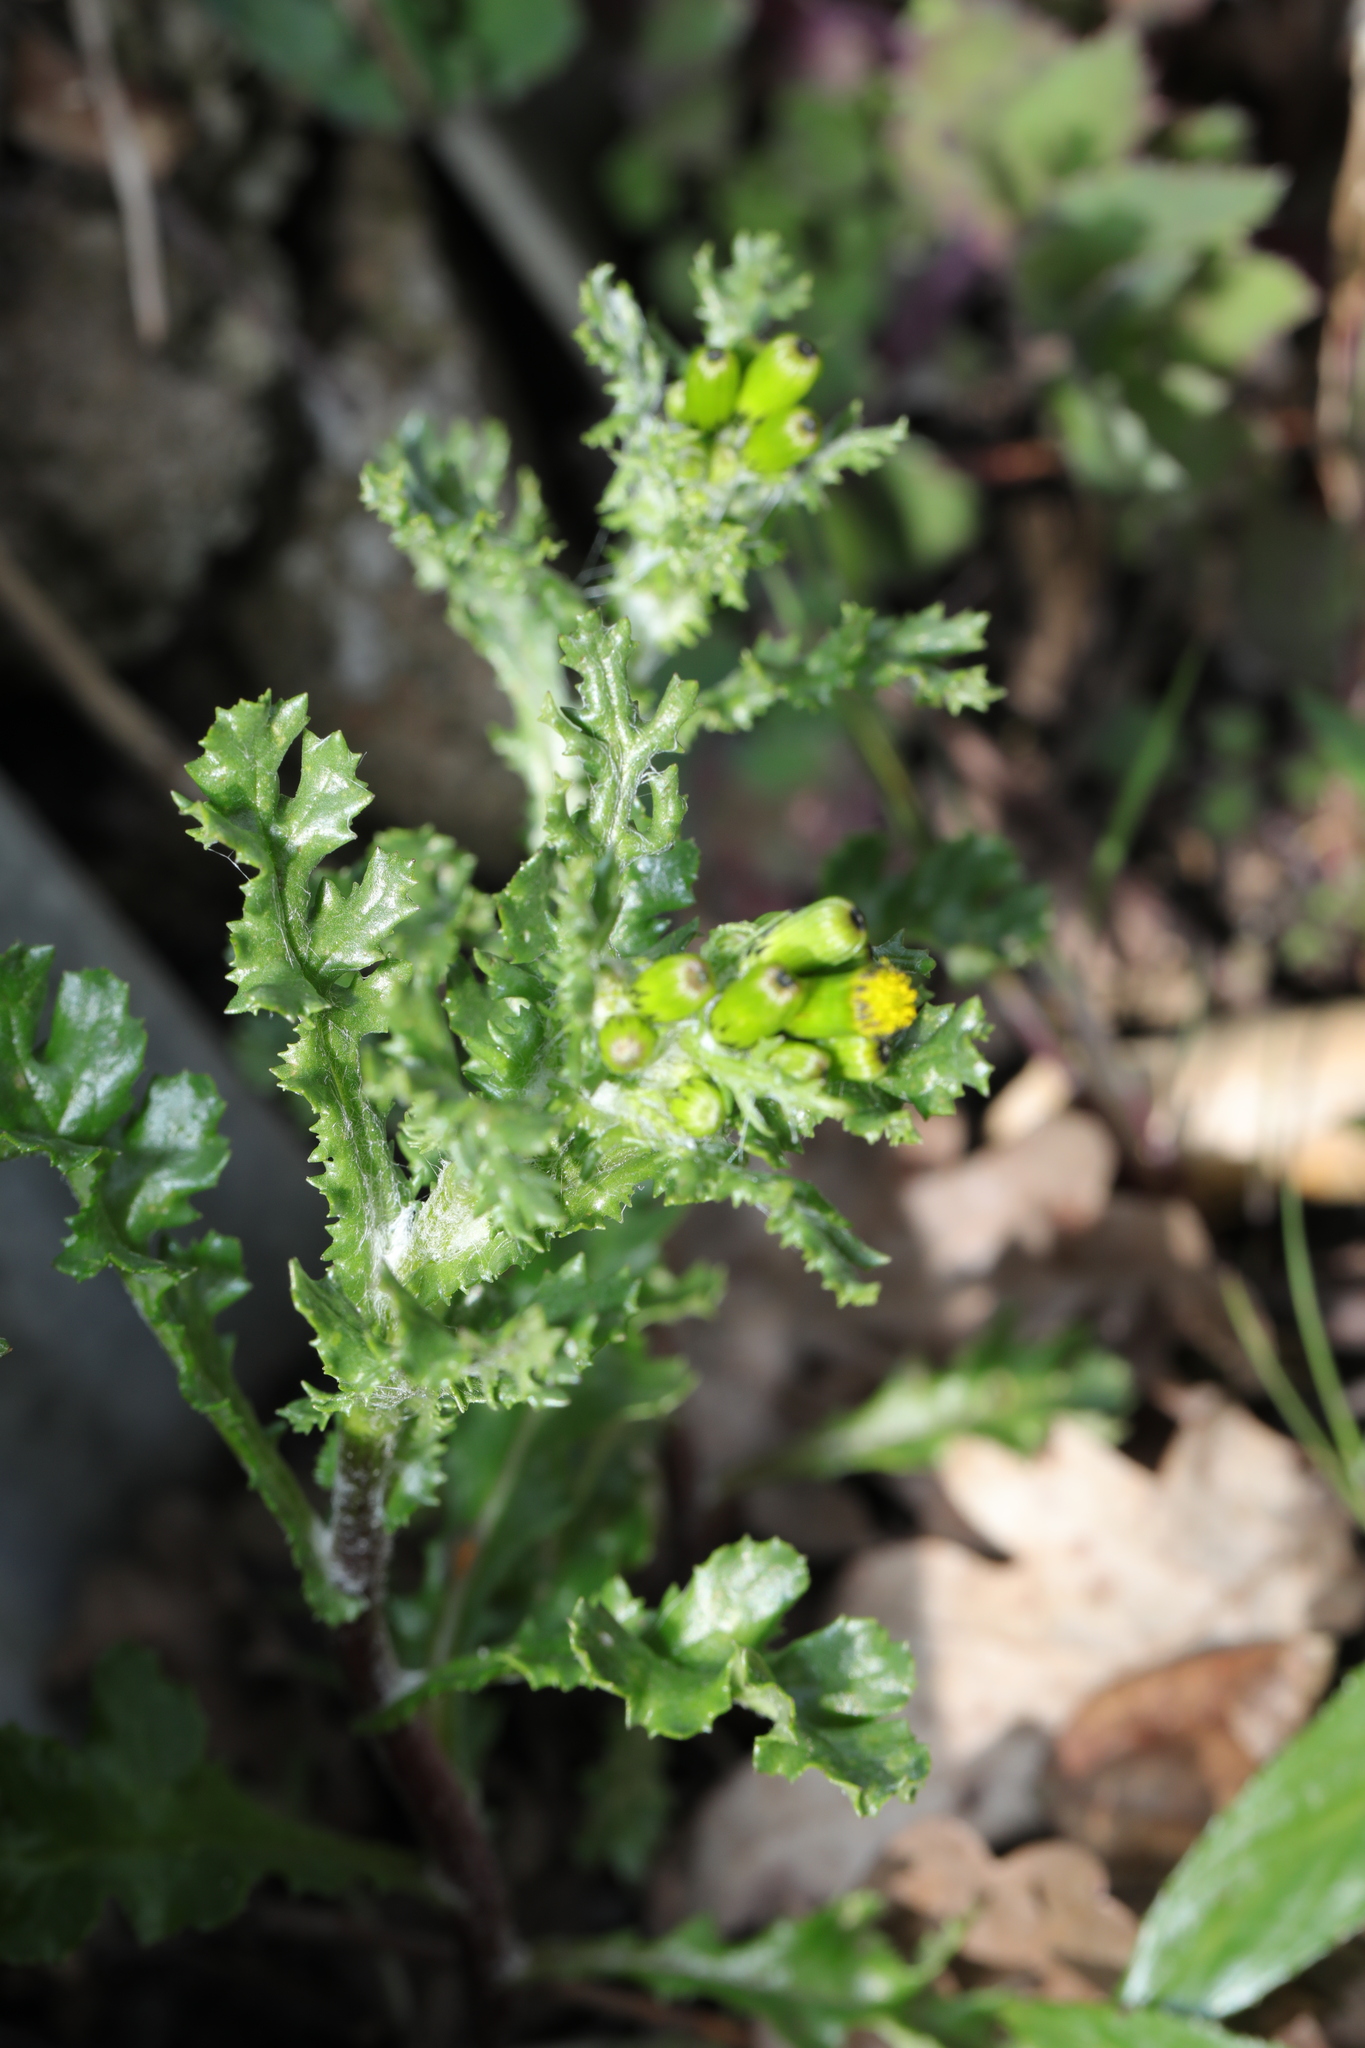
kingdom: Plantae
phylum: Tracheophyta
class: Magnoliopsida
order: Asterales
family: Asteraceae
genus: Senecio
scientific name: Senecio vulgaris
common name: Old-man-in-the-spring
